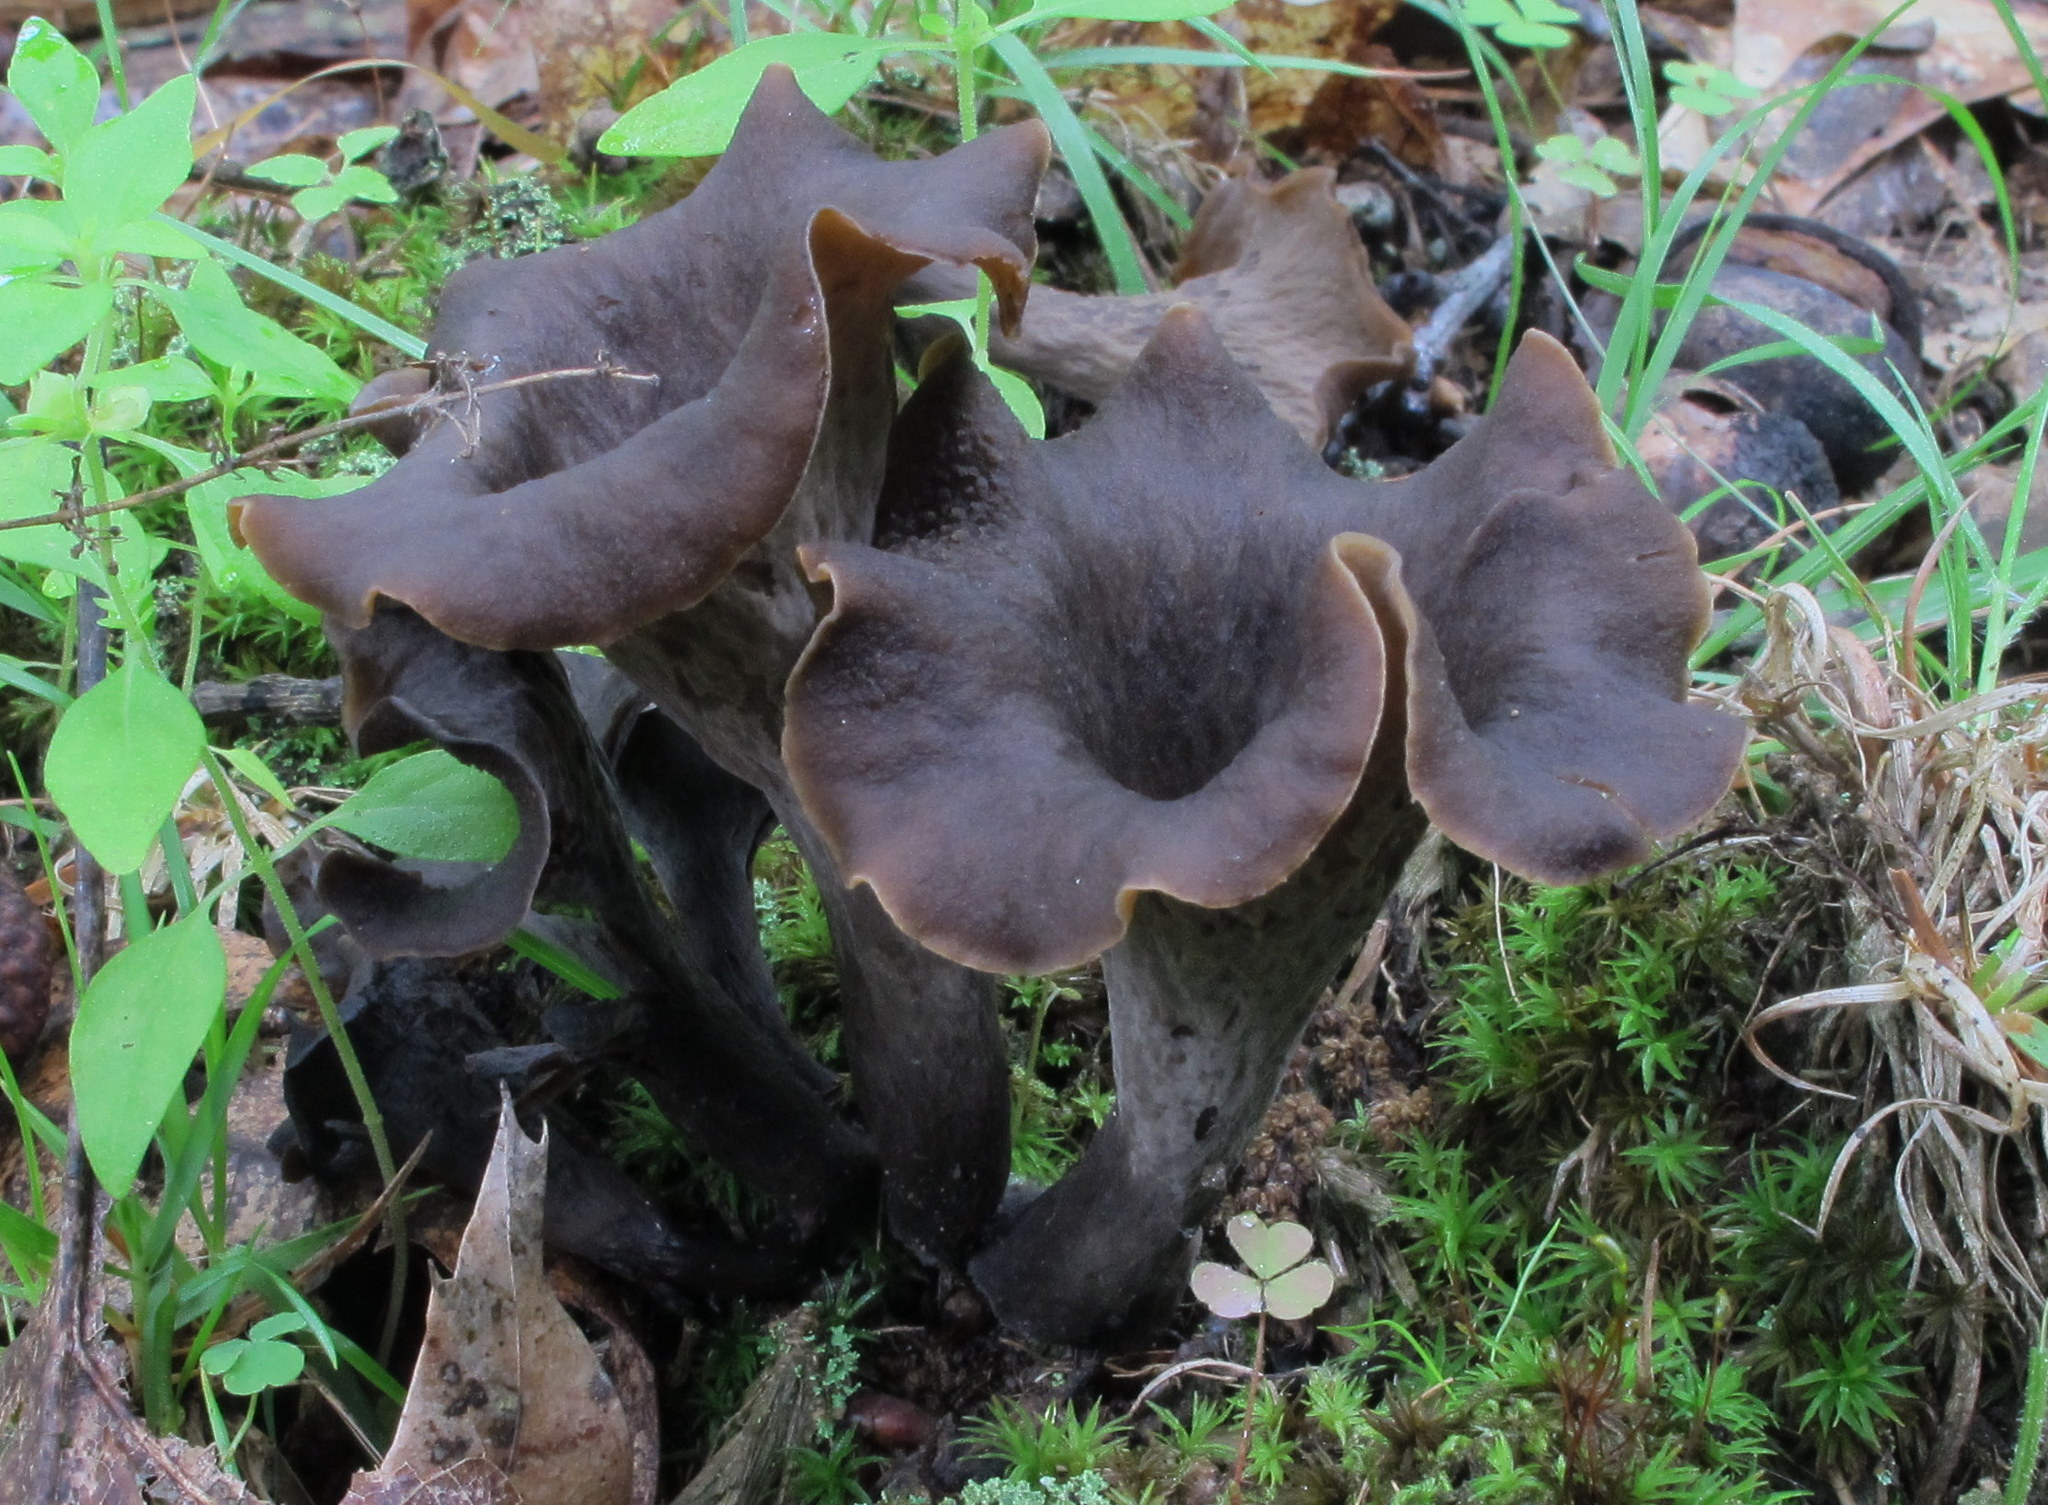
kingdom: Fungi
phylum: Basidiomycota
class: Agaricomycetes
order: Cantharellales
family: Hydnaceae
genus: Craterellus
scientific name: Craterellus cornucopioides
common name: Horn of plenty
